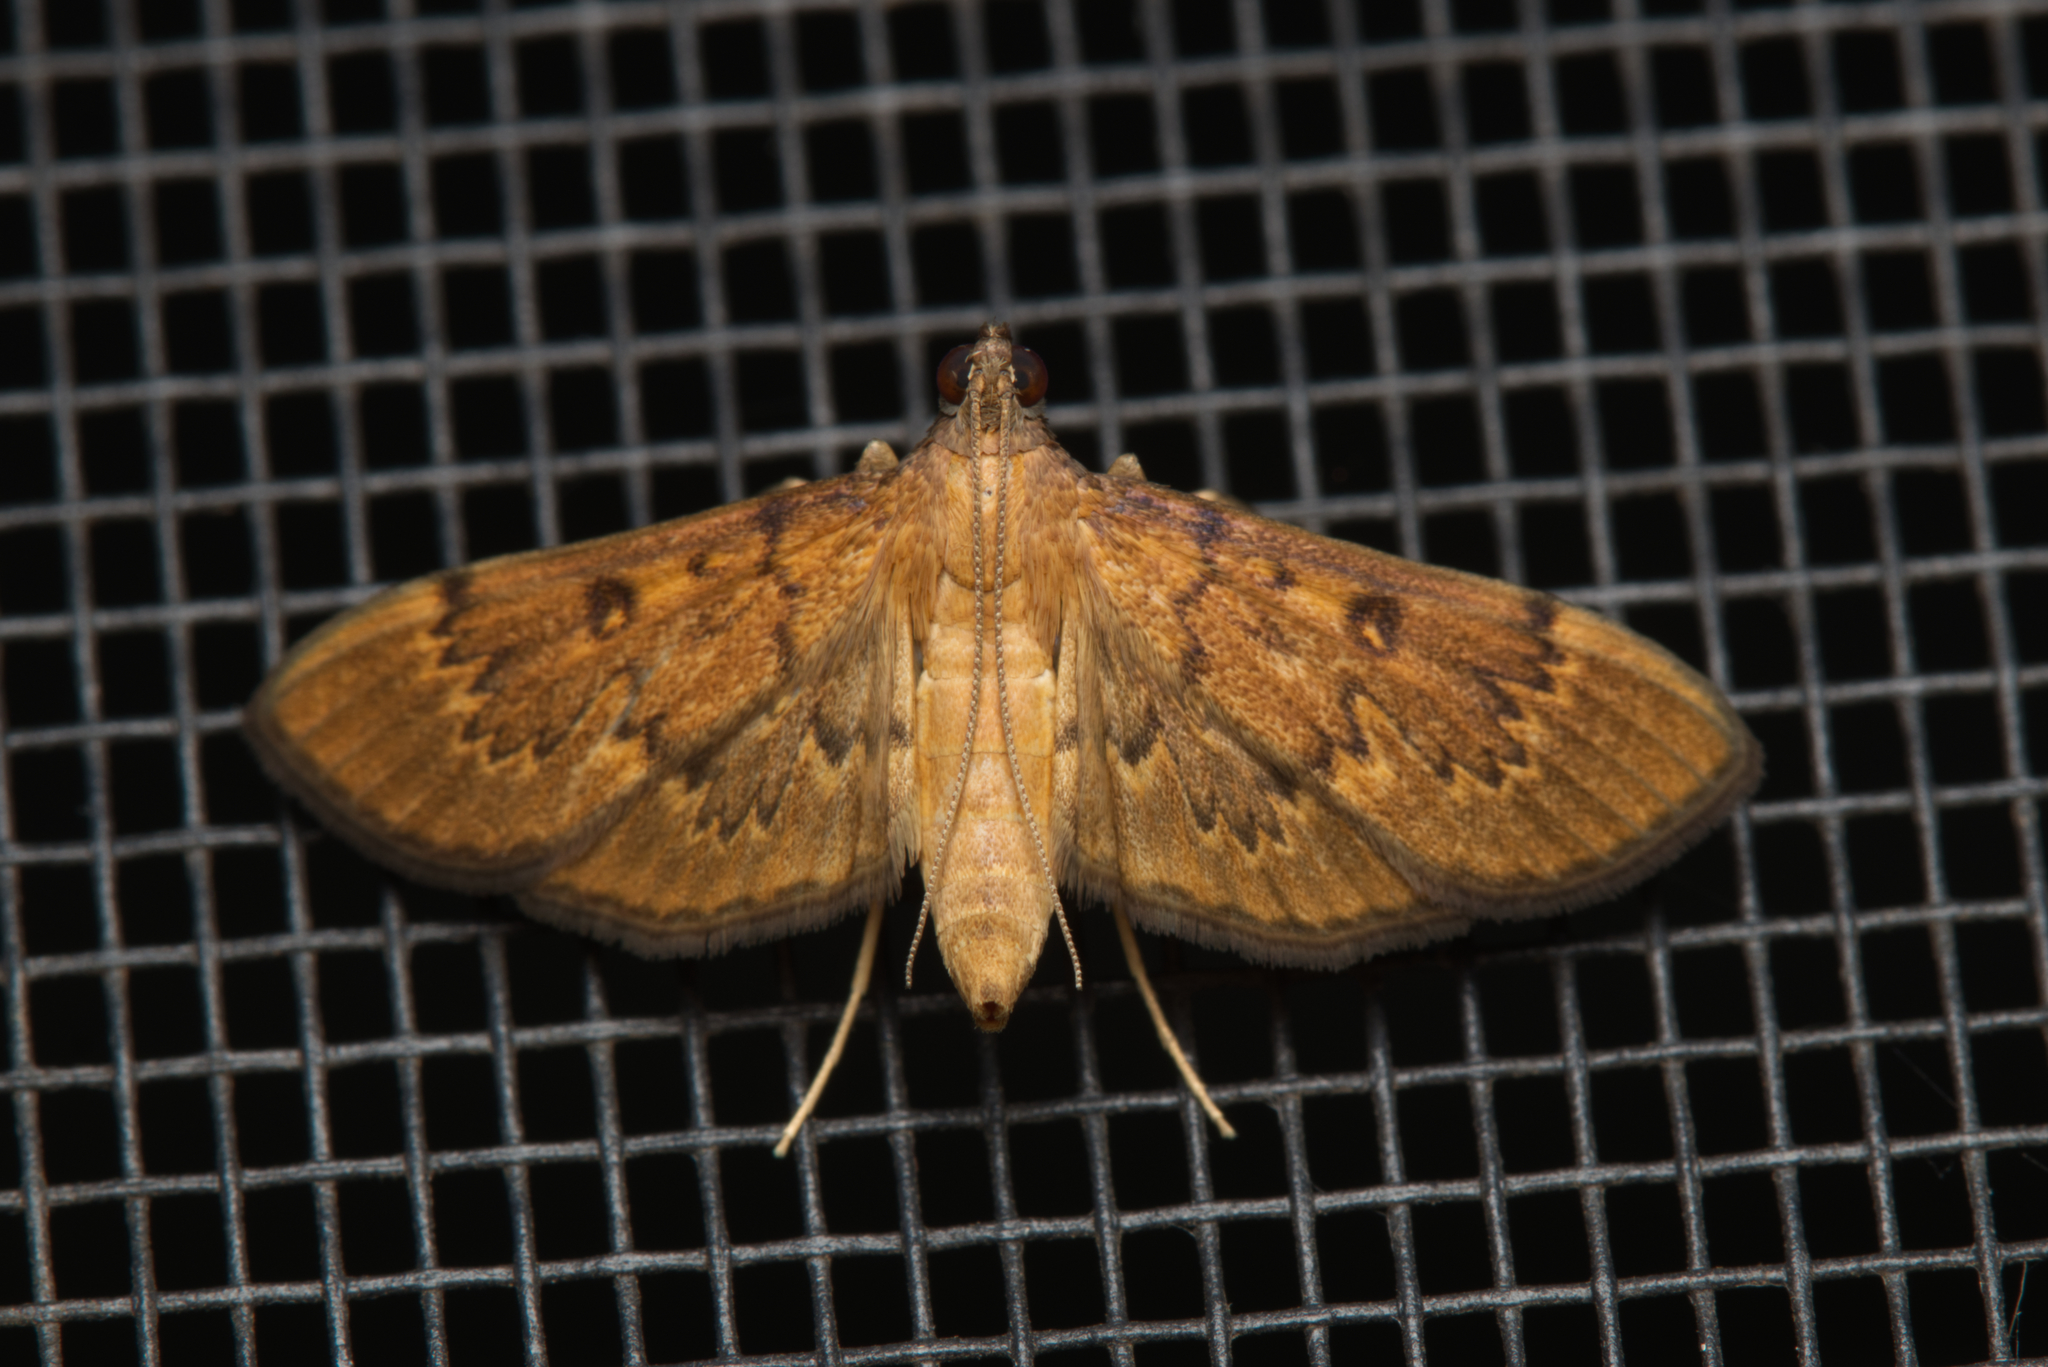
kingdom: Animalia
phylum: Arthropoda
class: Insecta
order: Lepidoptera
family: Crambidae
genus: Tatobotys
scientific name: Tatobotys janapalis
